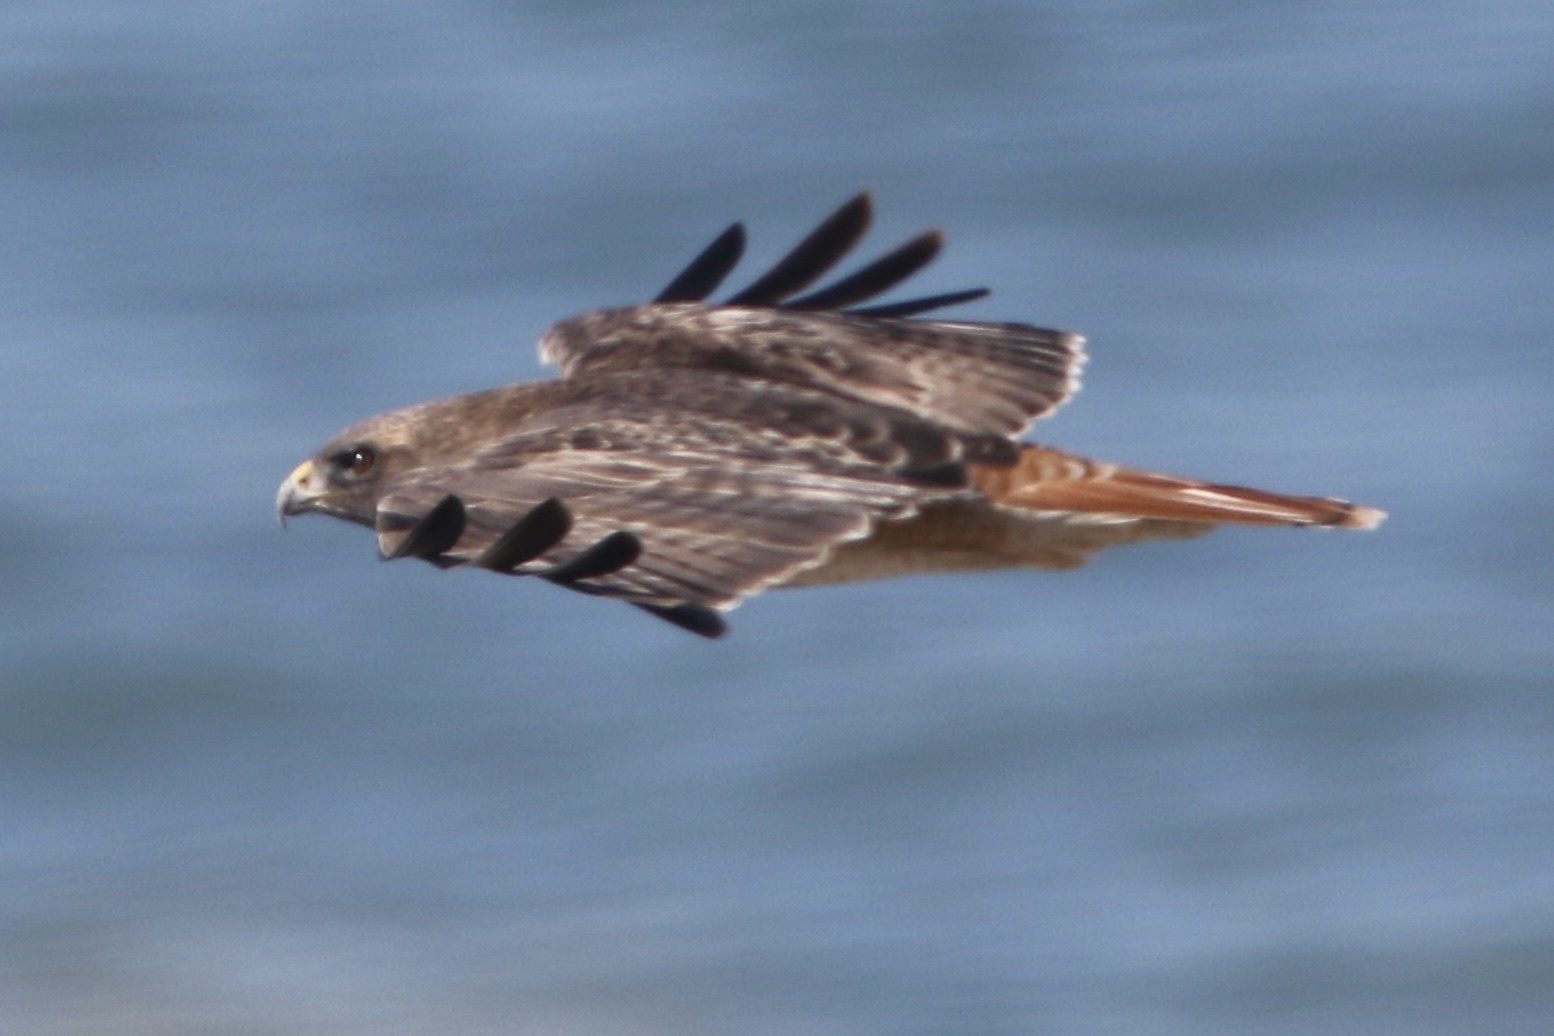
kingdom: Animalia
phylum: Chordata
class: Aves
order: Accipitriformes
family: Accipitridae
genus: Buteo
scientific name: Buteo jamaicensis
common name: Red-tailed hawk
